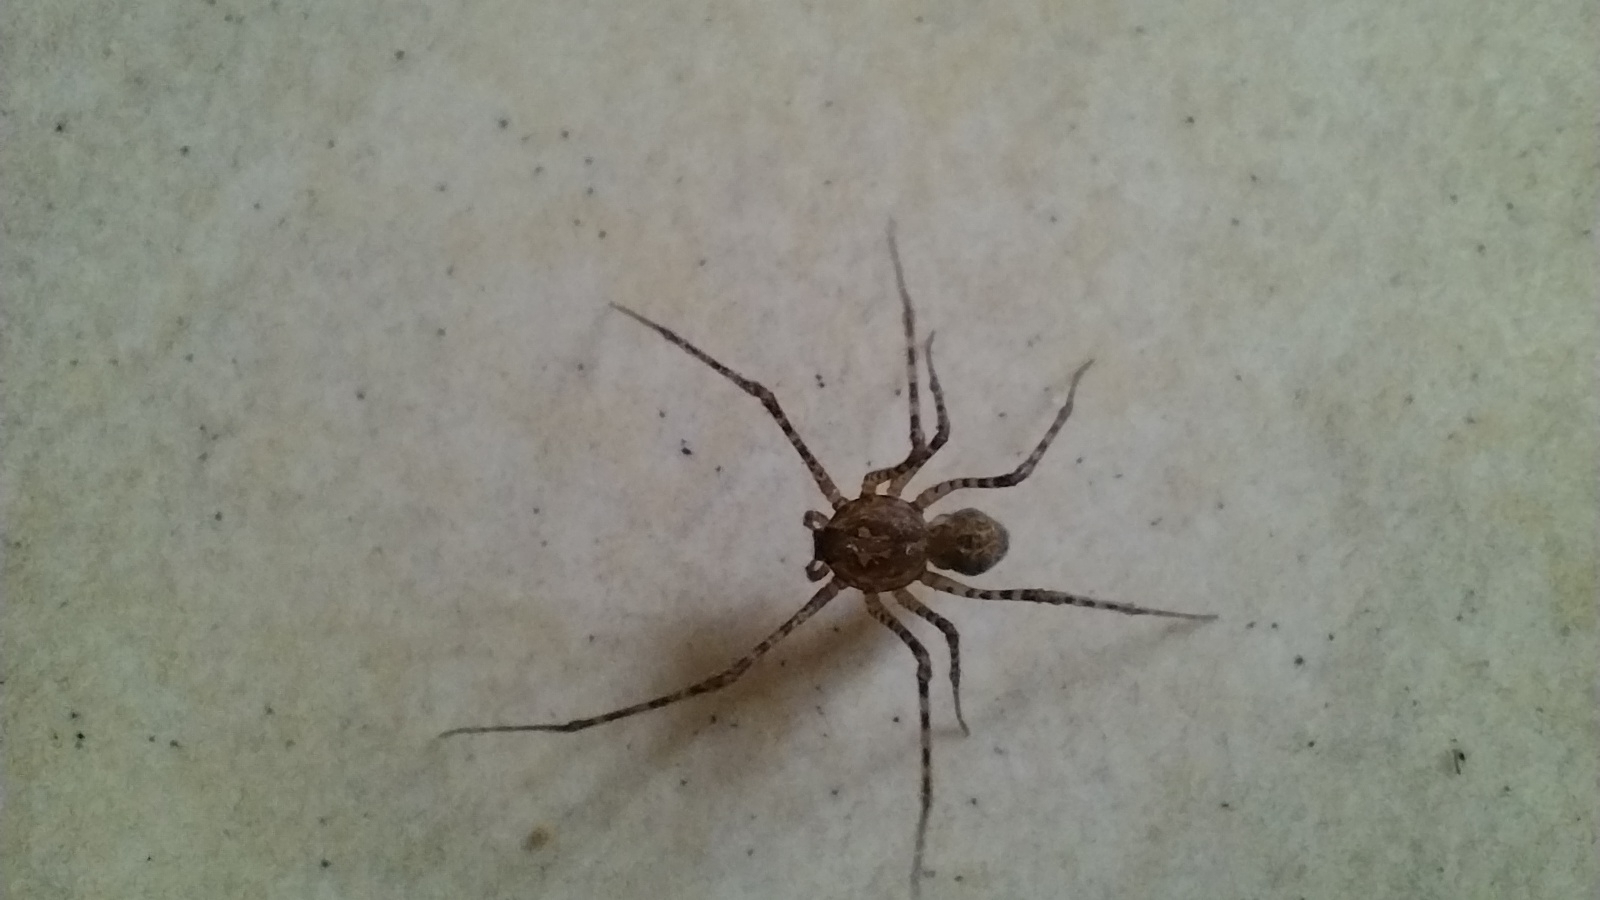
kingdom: Animalia
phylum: Arthropoda
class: Arachnida
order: Araneae
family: Scytodidae
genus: Scytodes
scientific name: Scytodes globula
